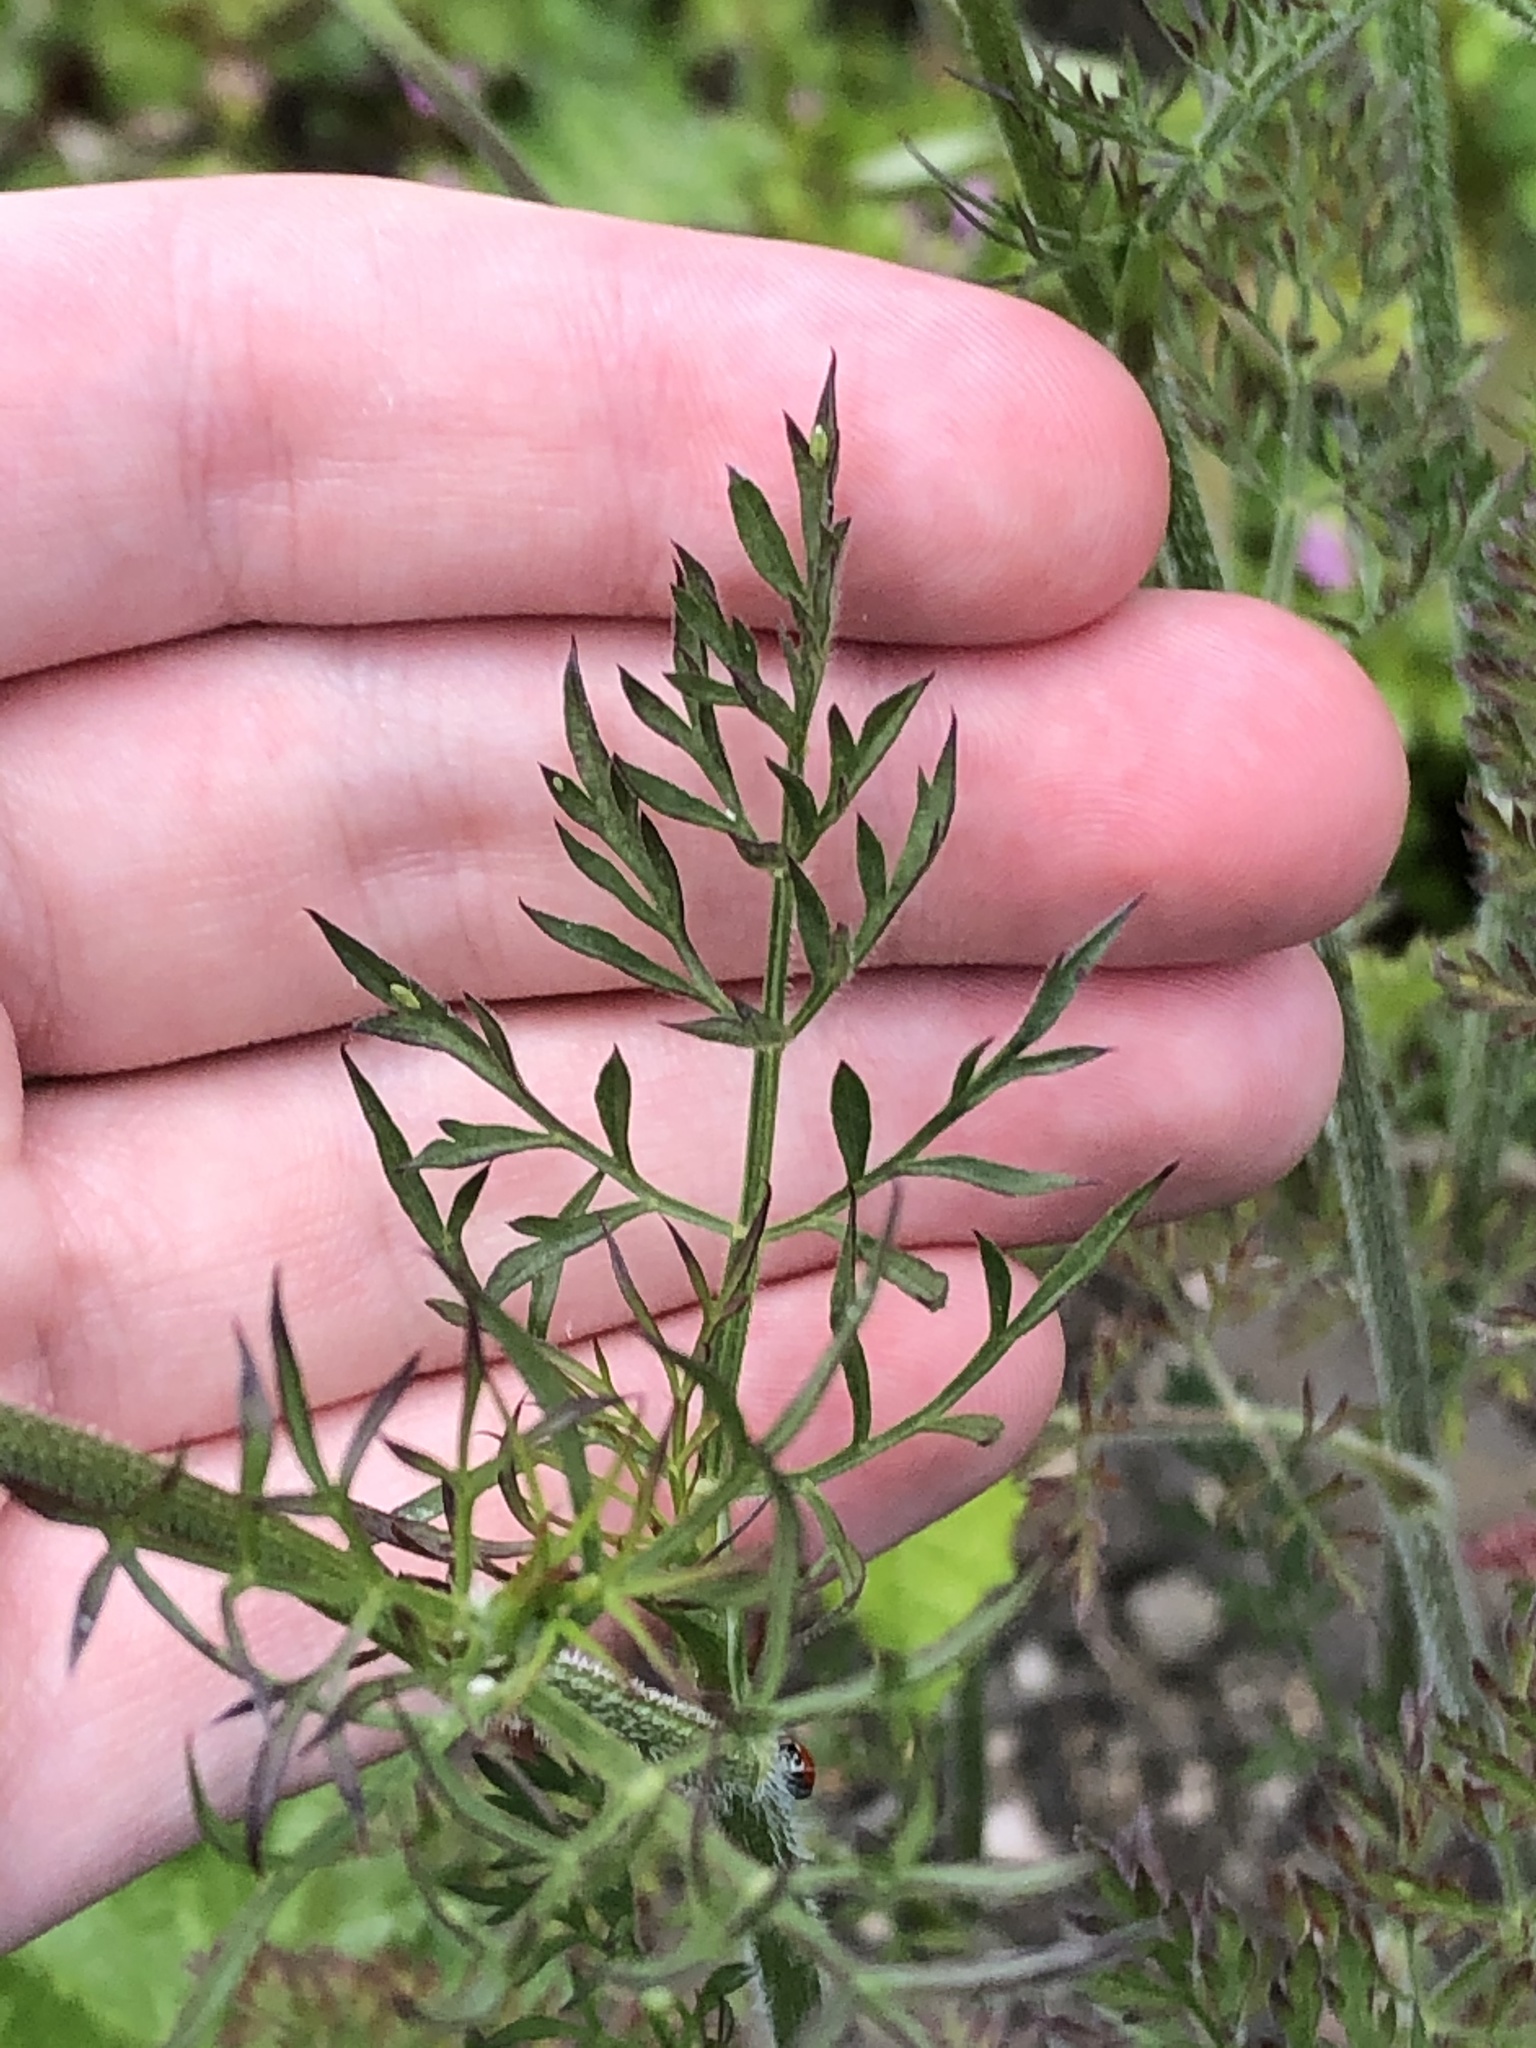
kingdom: Plantae
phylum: Tracheophyta
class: Magnoliopsida
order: Apiales
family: Apiaceae
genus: Daucus
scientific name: Daucus carota
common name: Wild carrot
